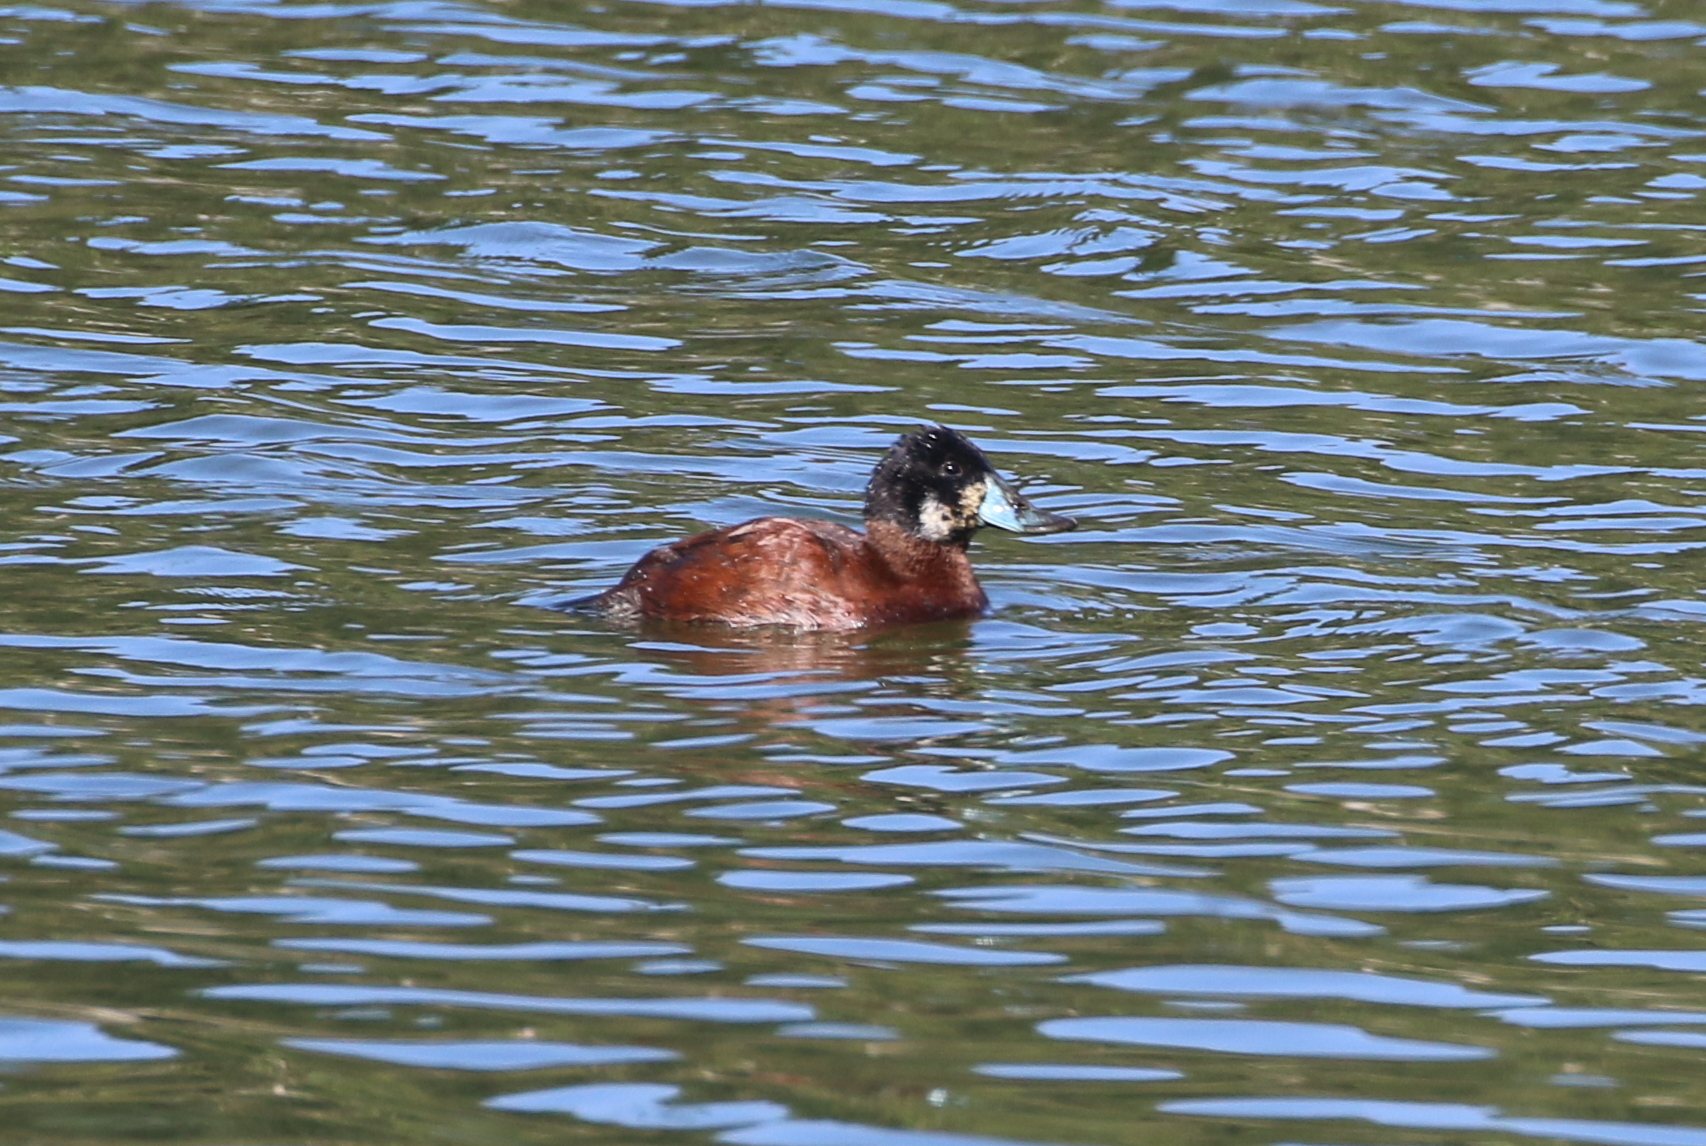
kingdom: Animalia
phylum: Chordata
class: Aves
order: Anseriformes
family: Anatidae
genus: Oxyura
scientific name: Oxyura ferruginea
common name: Andean duck
